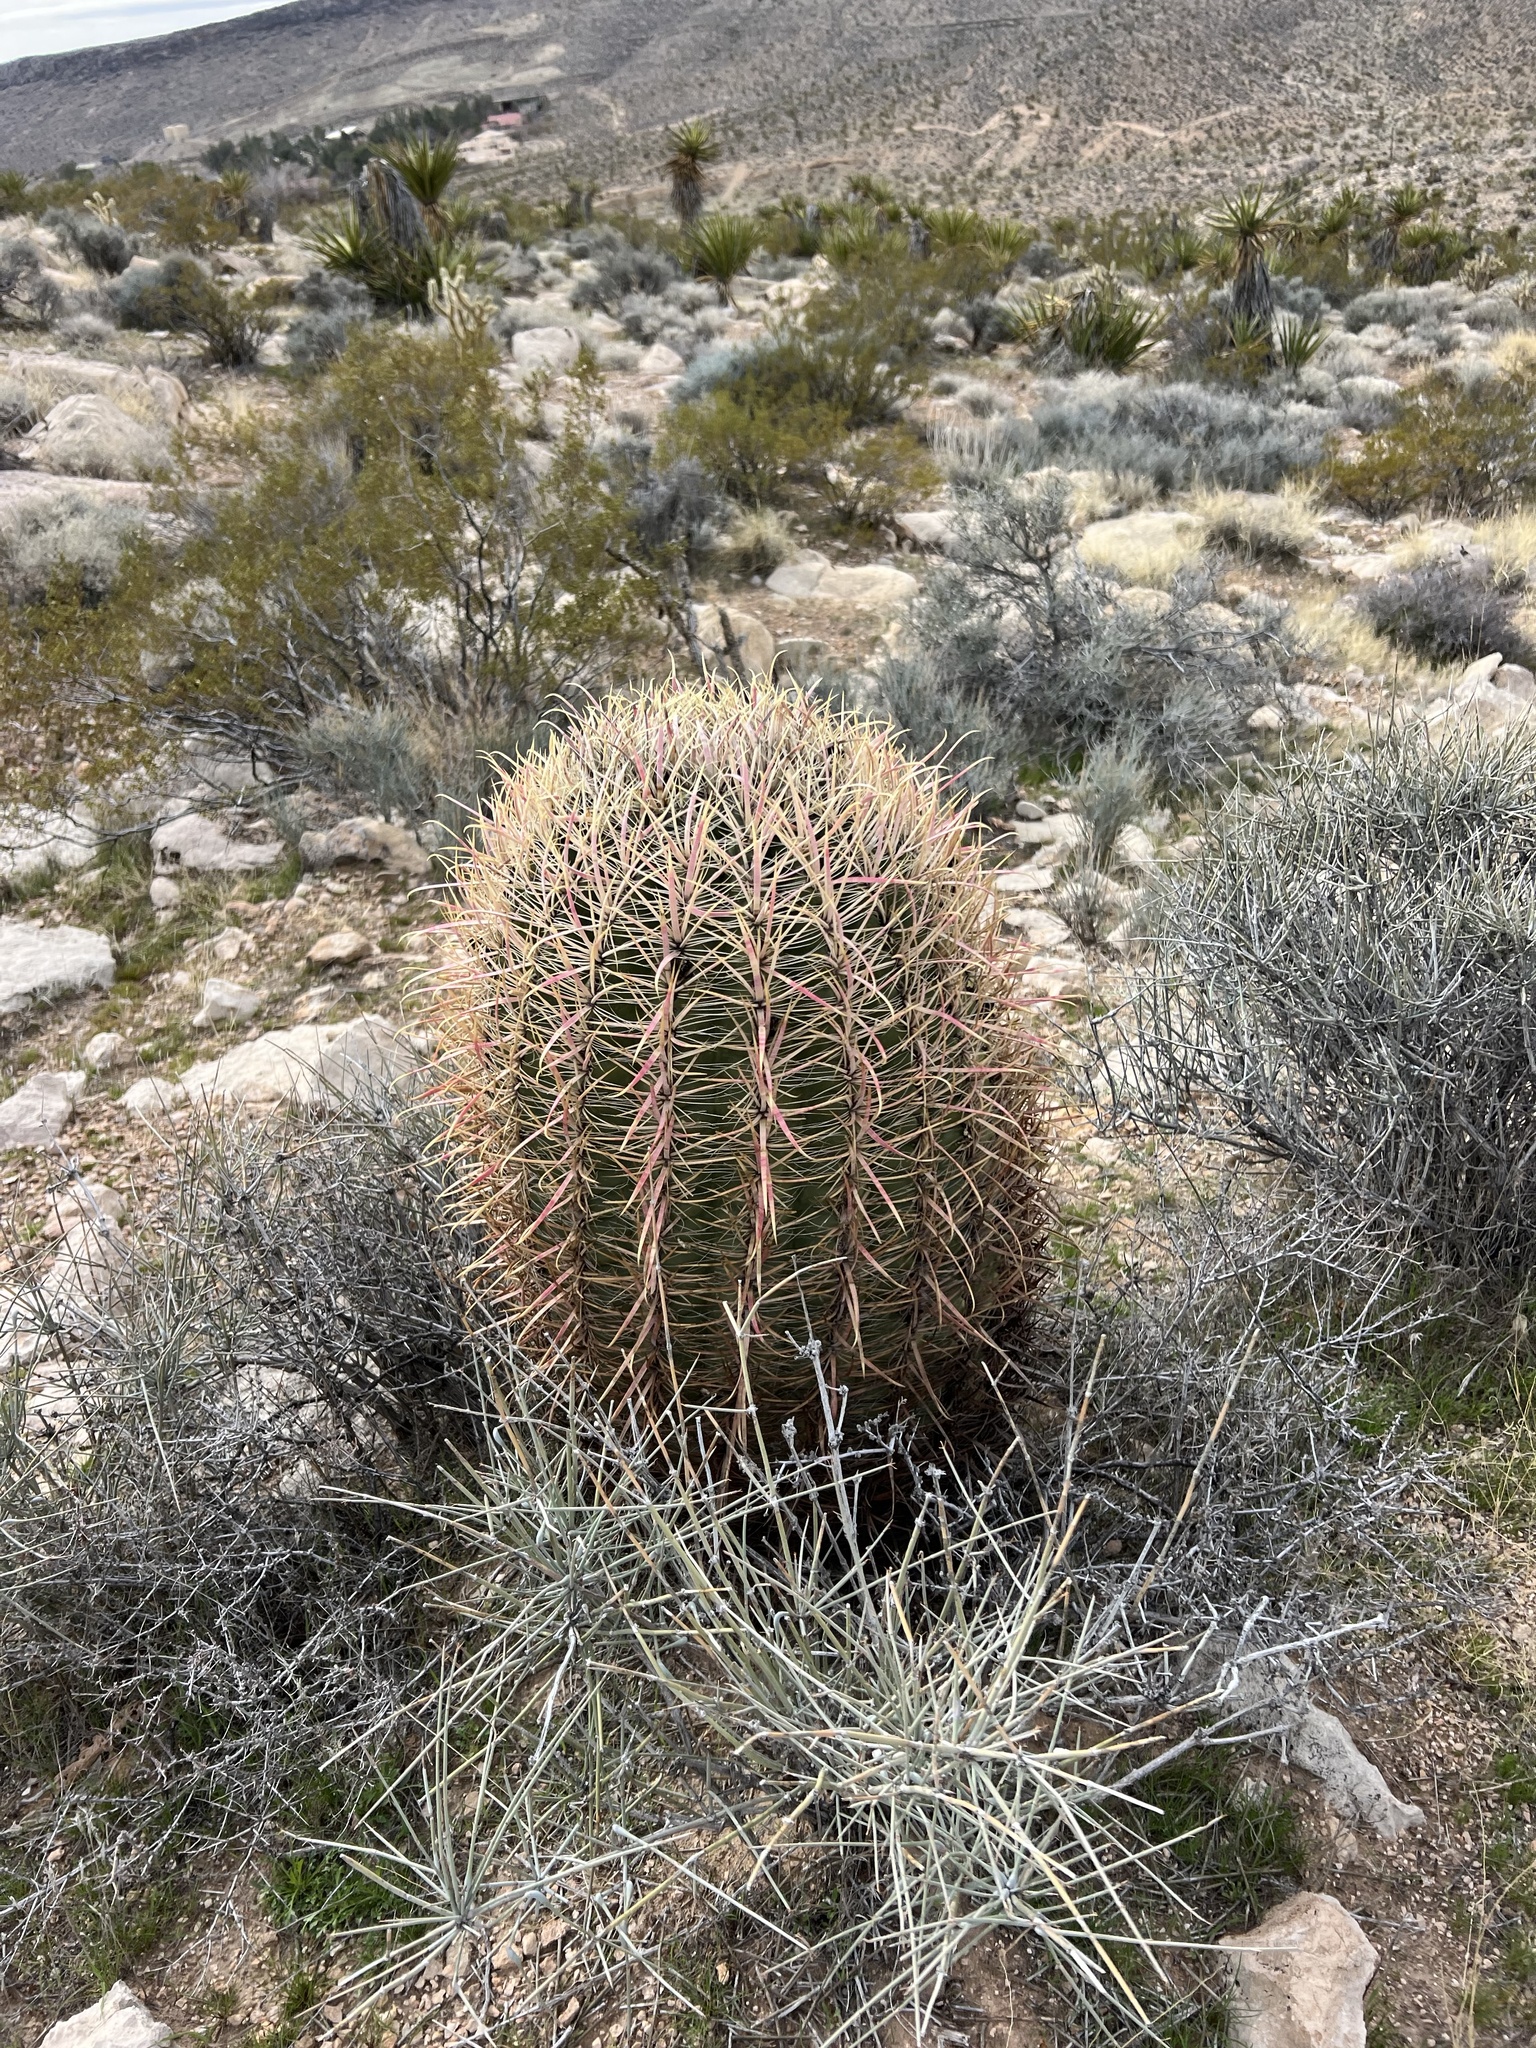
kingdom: Plantae
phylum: Tracheophyta
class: Magnoliopsida
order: Caryophyllales
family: Cactaceae
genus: Ferocactus
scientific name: Ferocactus cylindraceus
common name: California barrel cactus
